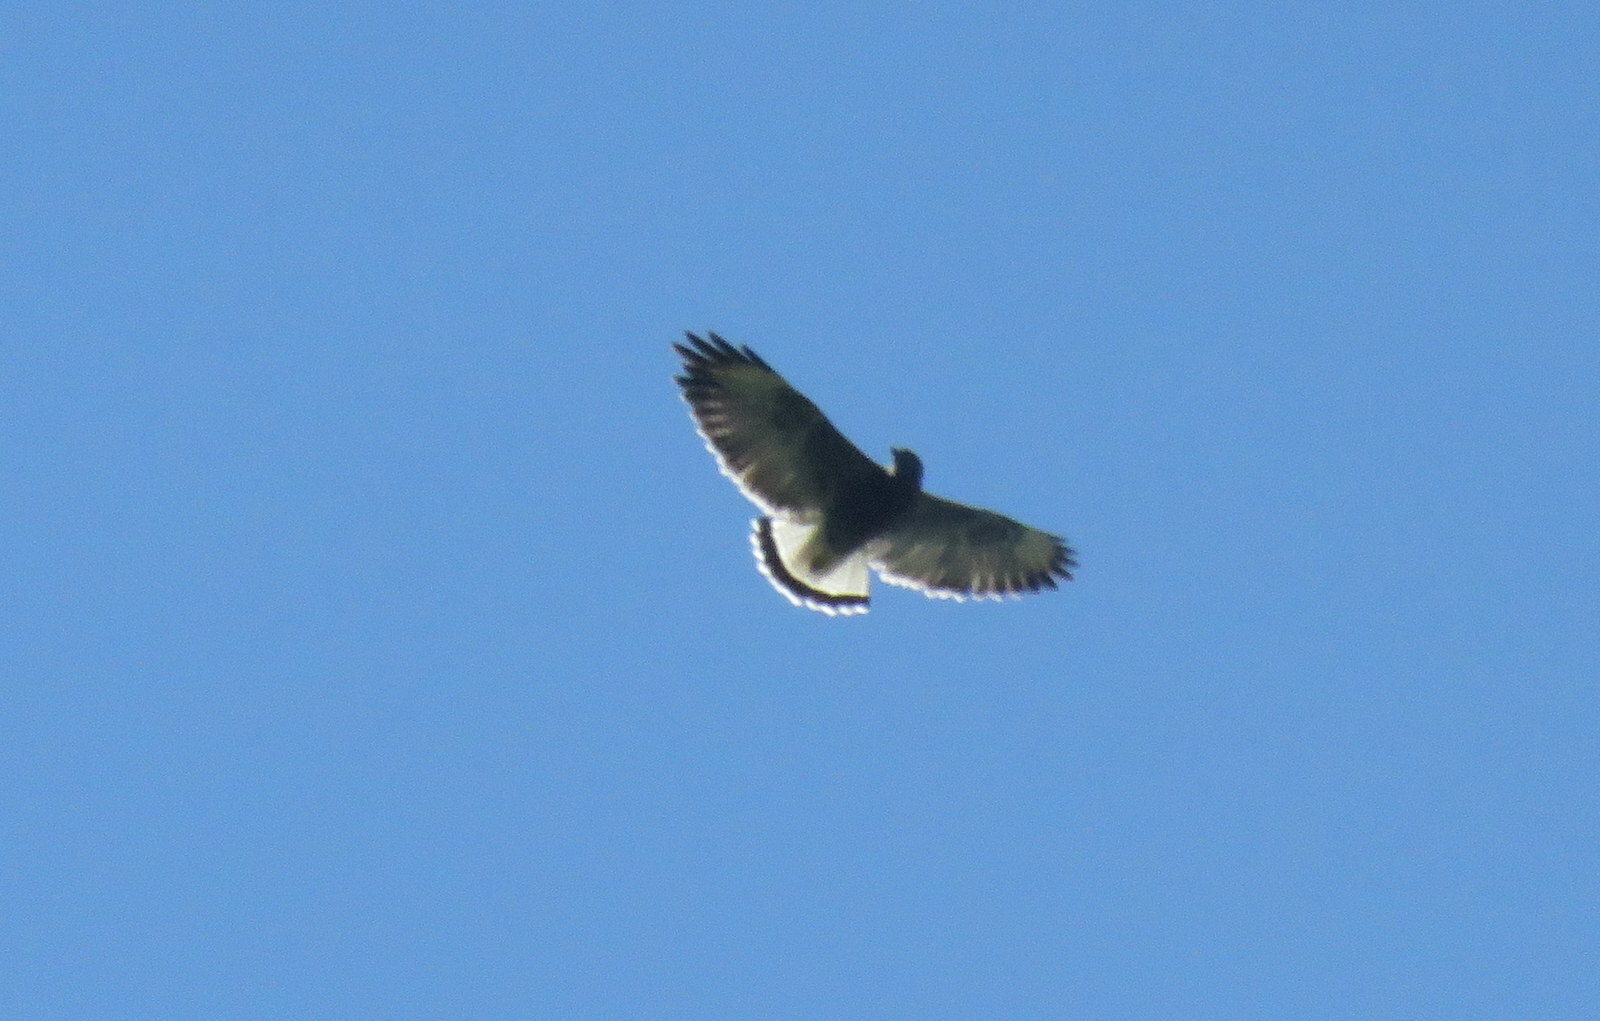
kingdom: Animalia
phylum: Chordata
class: Aves
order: Accipitriformes
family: Accipitridae
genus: Buteo
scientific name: Buteo polyosoma
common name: Variable hawk
